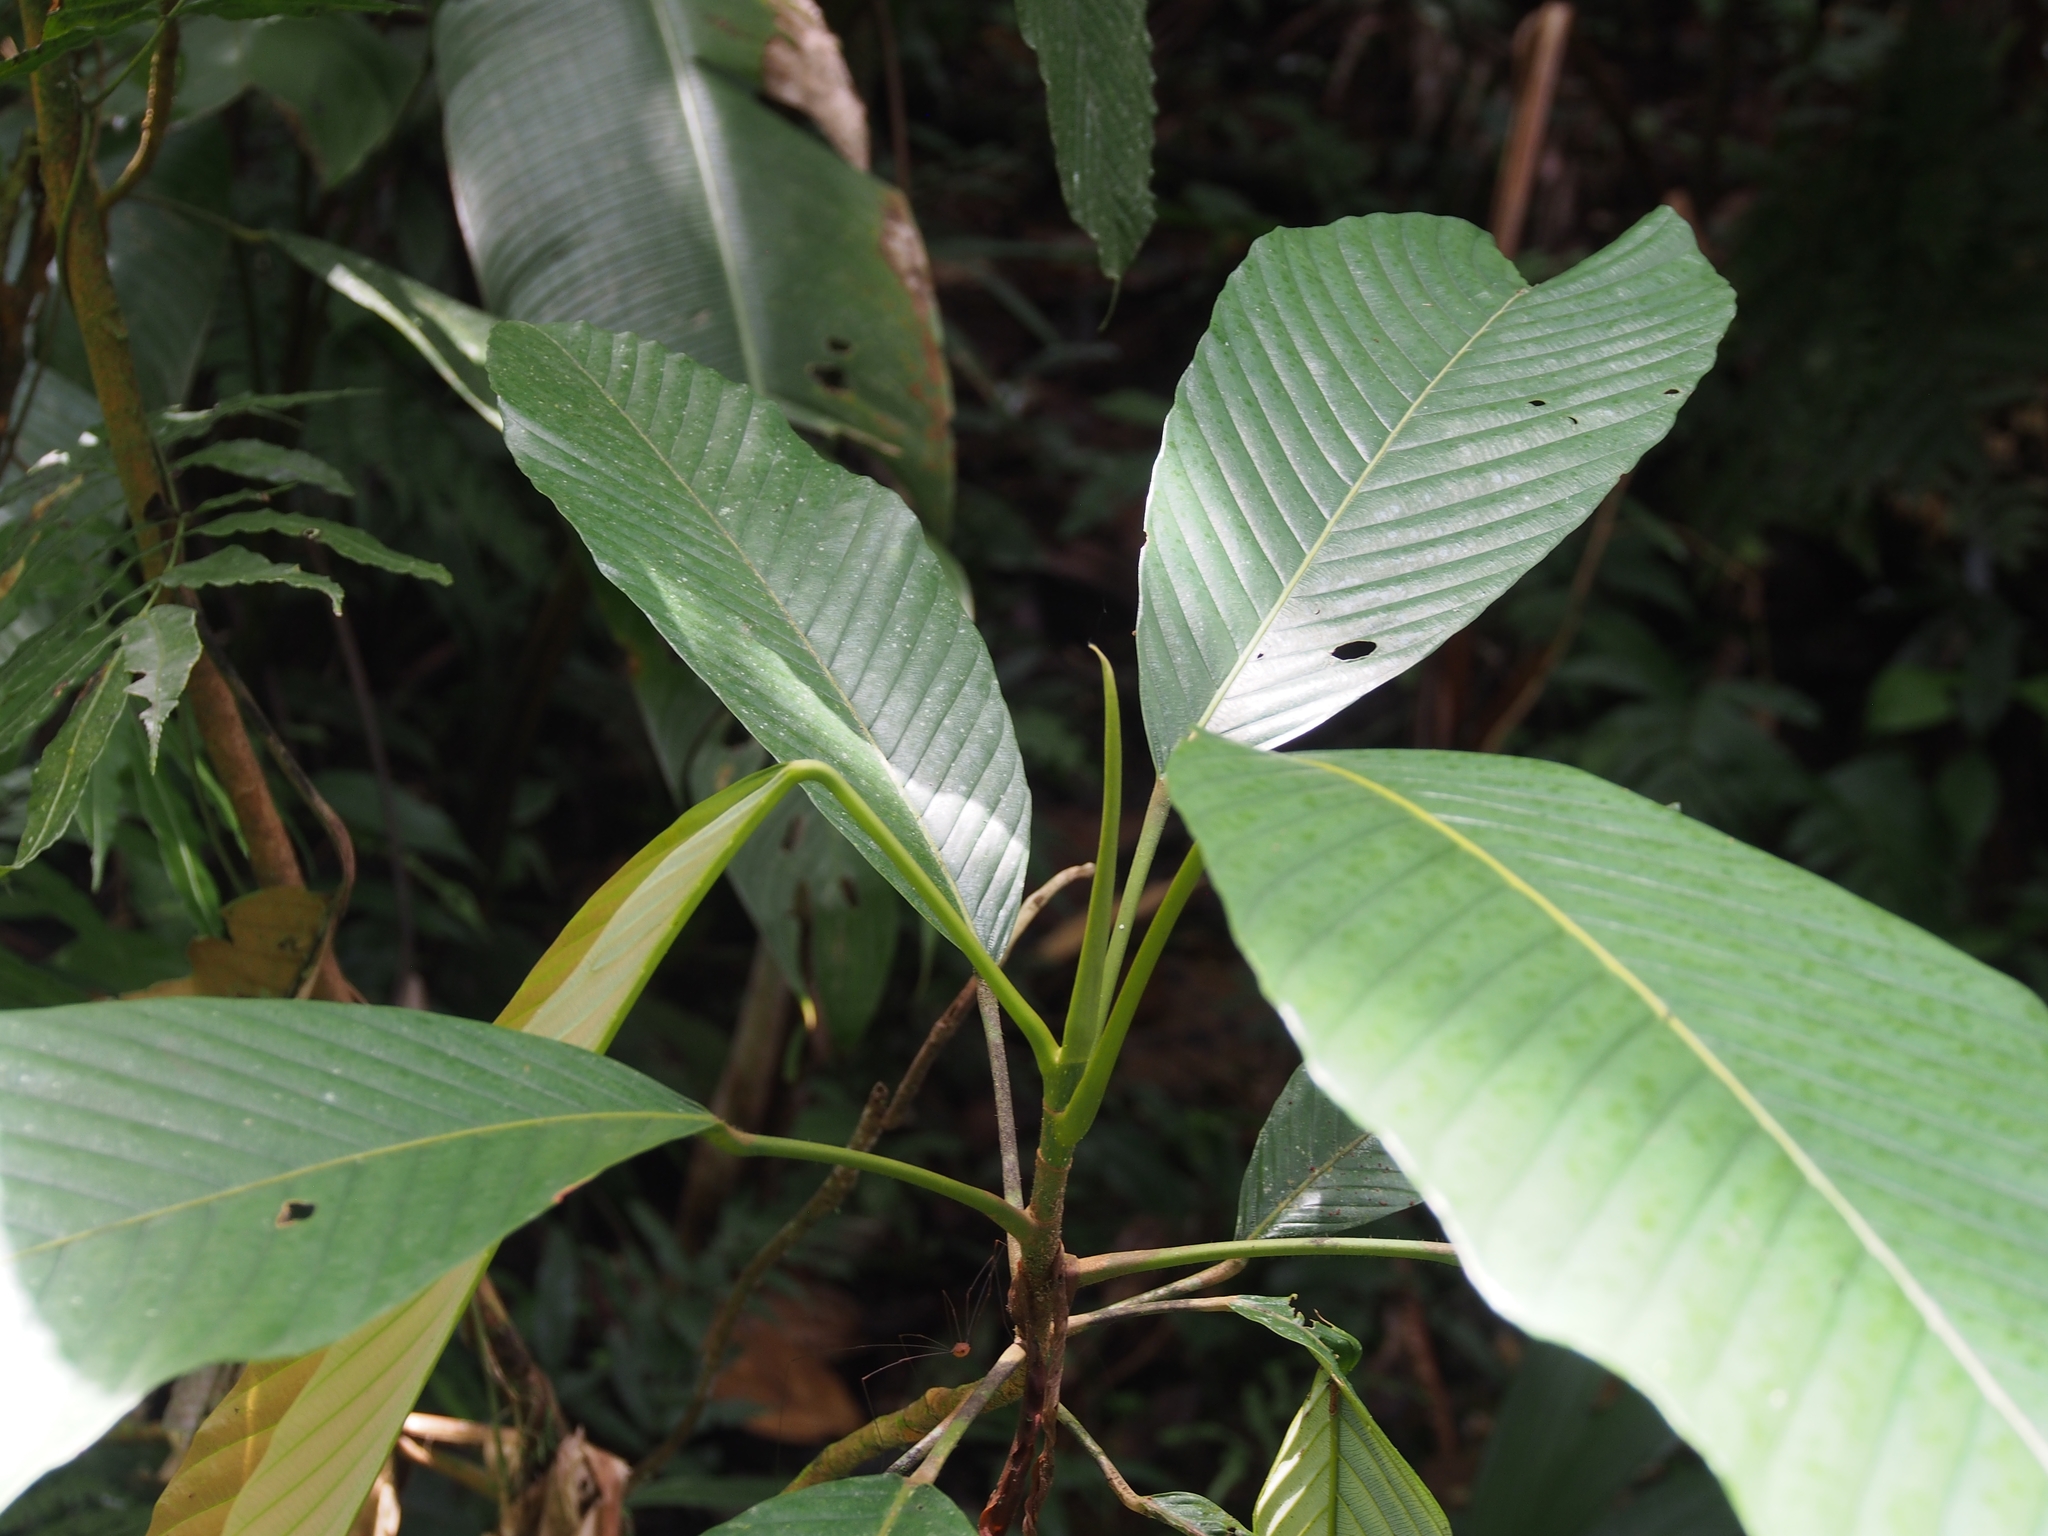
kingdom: Plantae
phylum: Tracheophyta
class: Magnoliopsida
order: Rosales
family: Urticaceae
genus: Pourouma
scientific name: Pourouma minor
